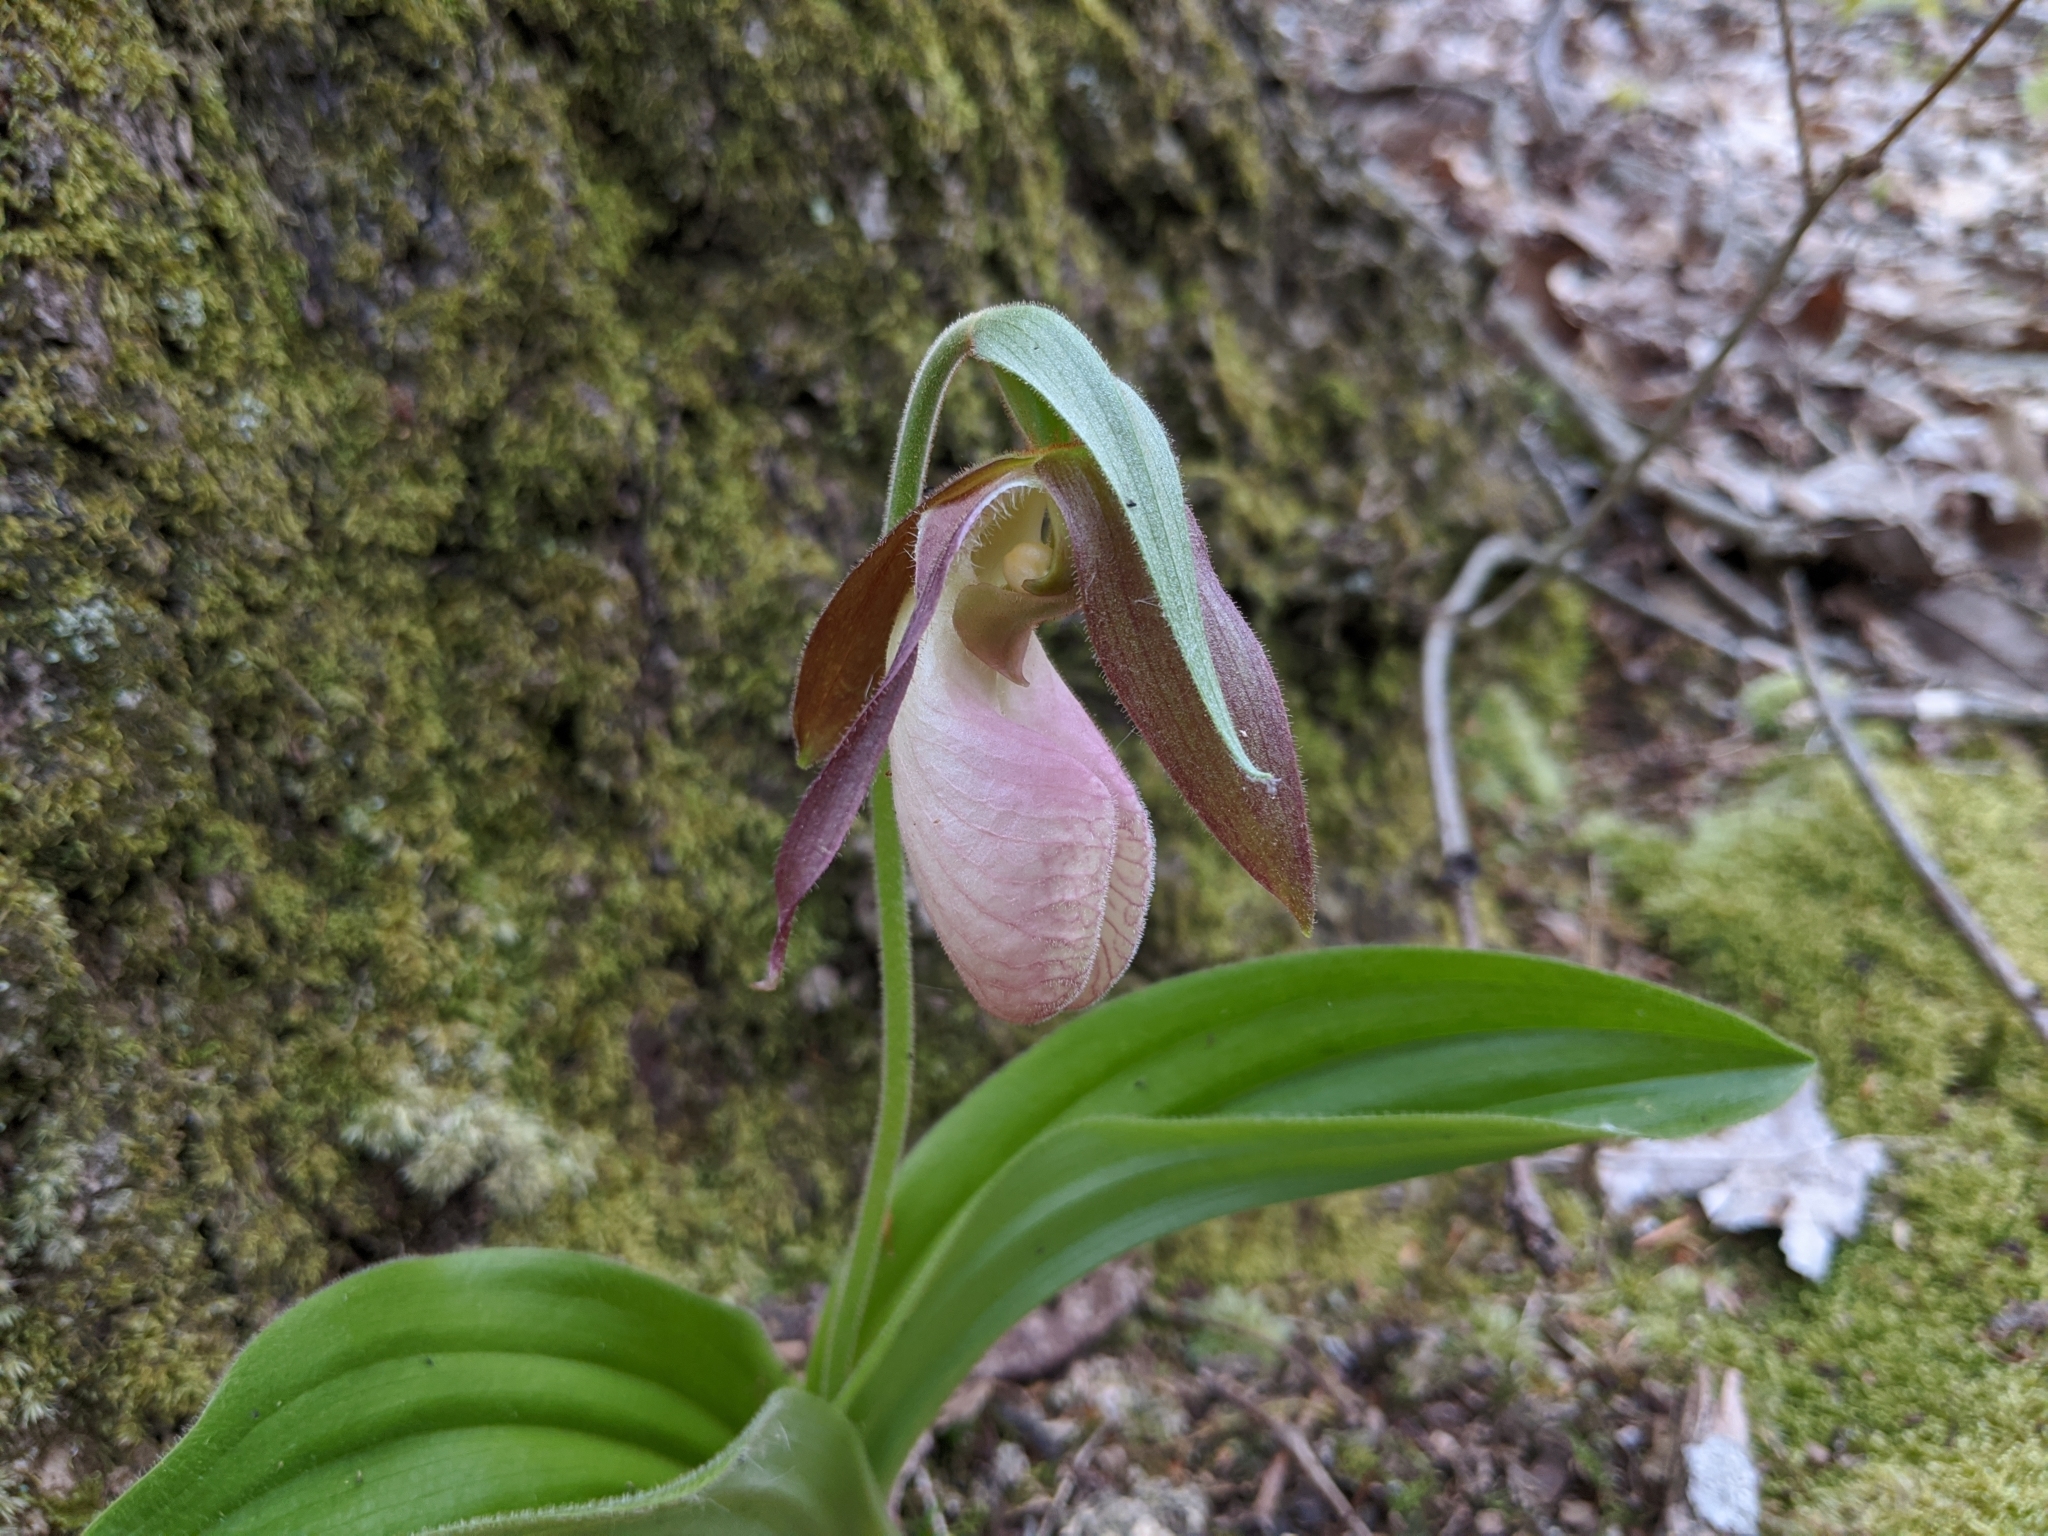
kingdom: Plantae
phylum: Tracheophyta
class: Liliopsida
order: Asparagales
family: Orchidaceae
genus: Cypripedium
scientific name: Cypripedium acaule
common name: Pink lady's-slipper
